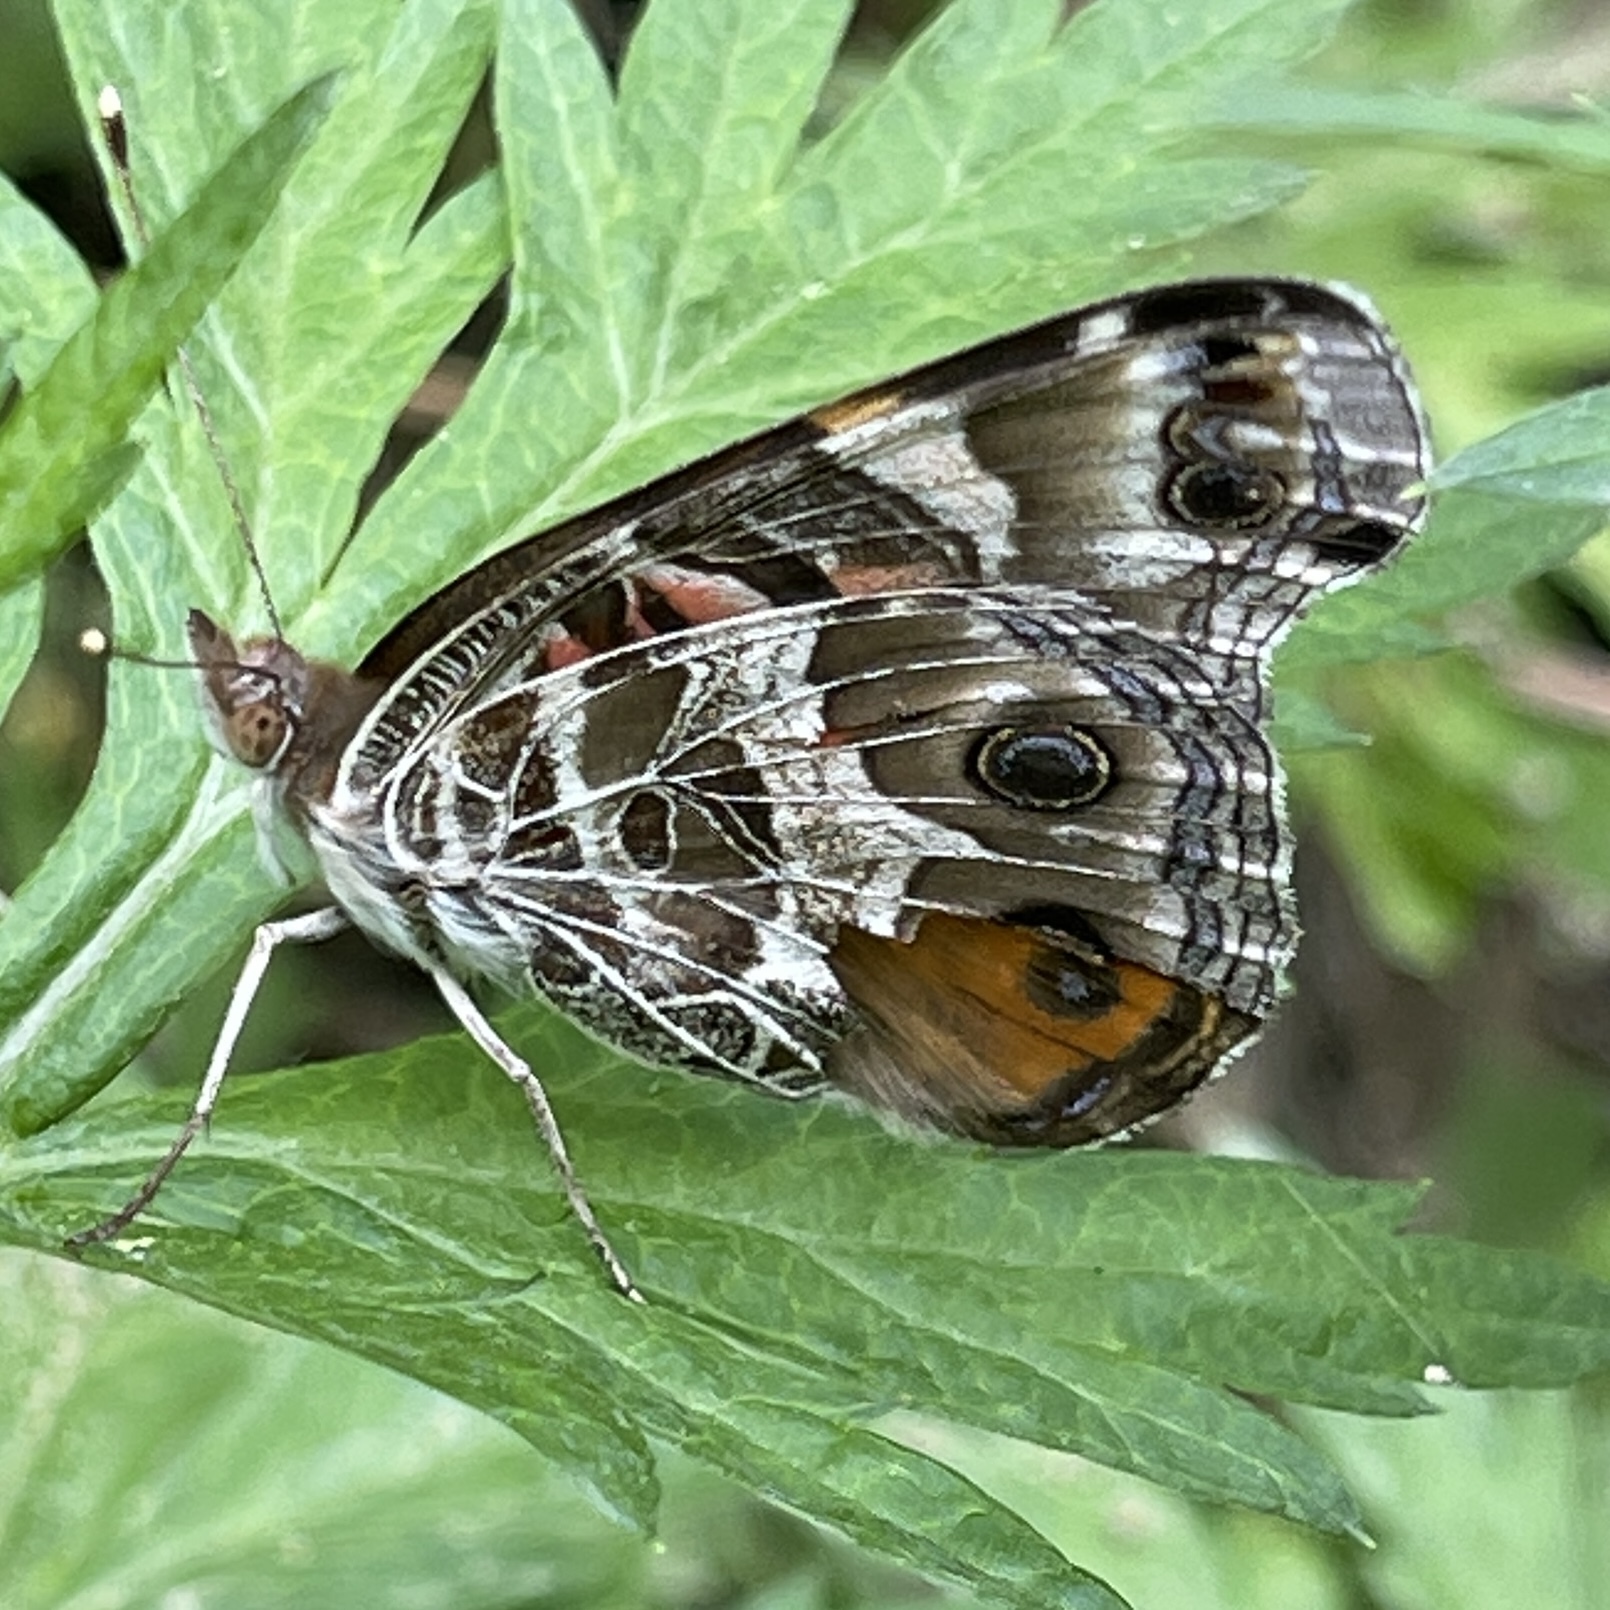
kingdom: Animalia
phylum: Arthropoda
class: Insecta
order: Lepidoptera
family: Nymphalidae
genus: Vanessa
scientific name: Vanessa virginiensis
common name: American lady
